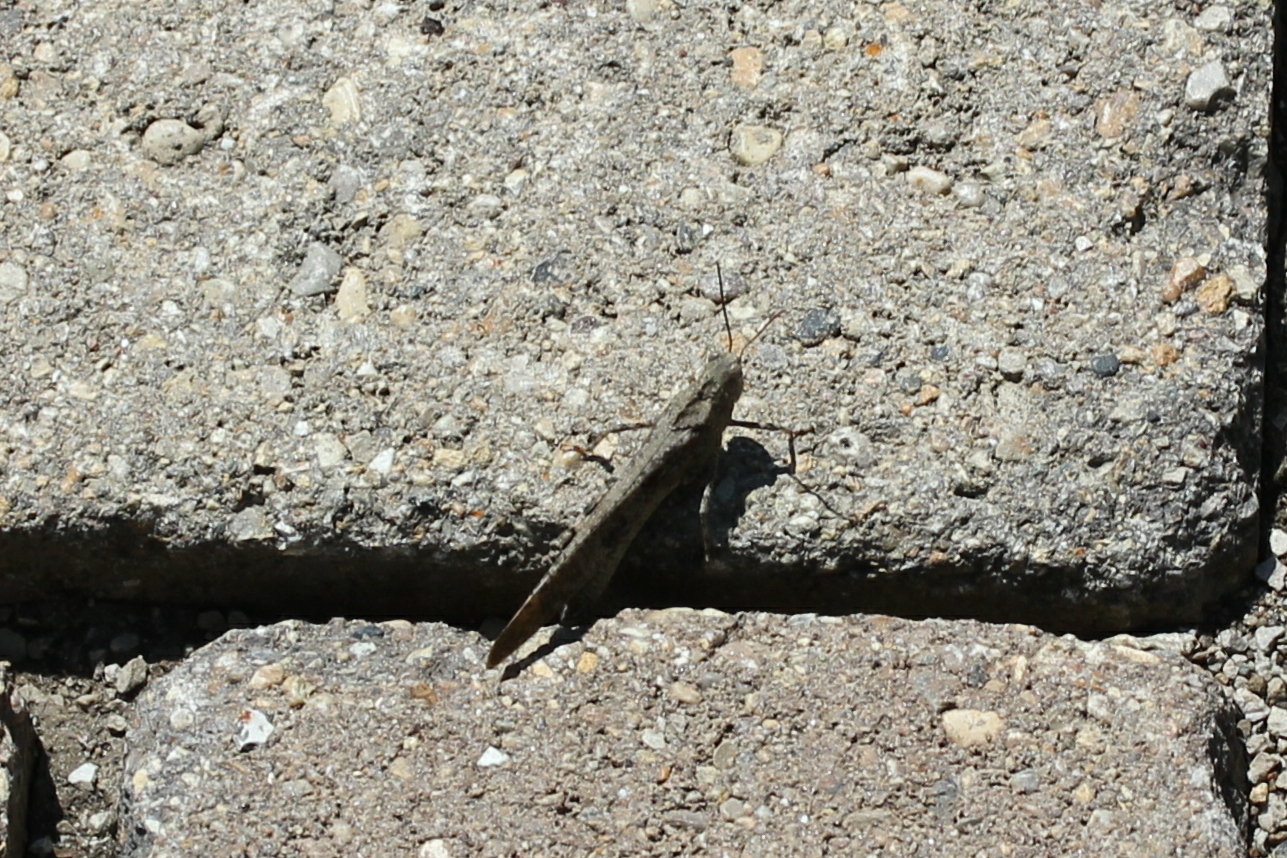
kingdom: Animalia
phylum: Arthropoda
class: Insecta
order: Orthoptera
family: Acrididae
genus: Dissosteira
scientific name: Dissosteira carolina
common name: Carolina grasshopper
